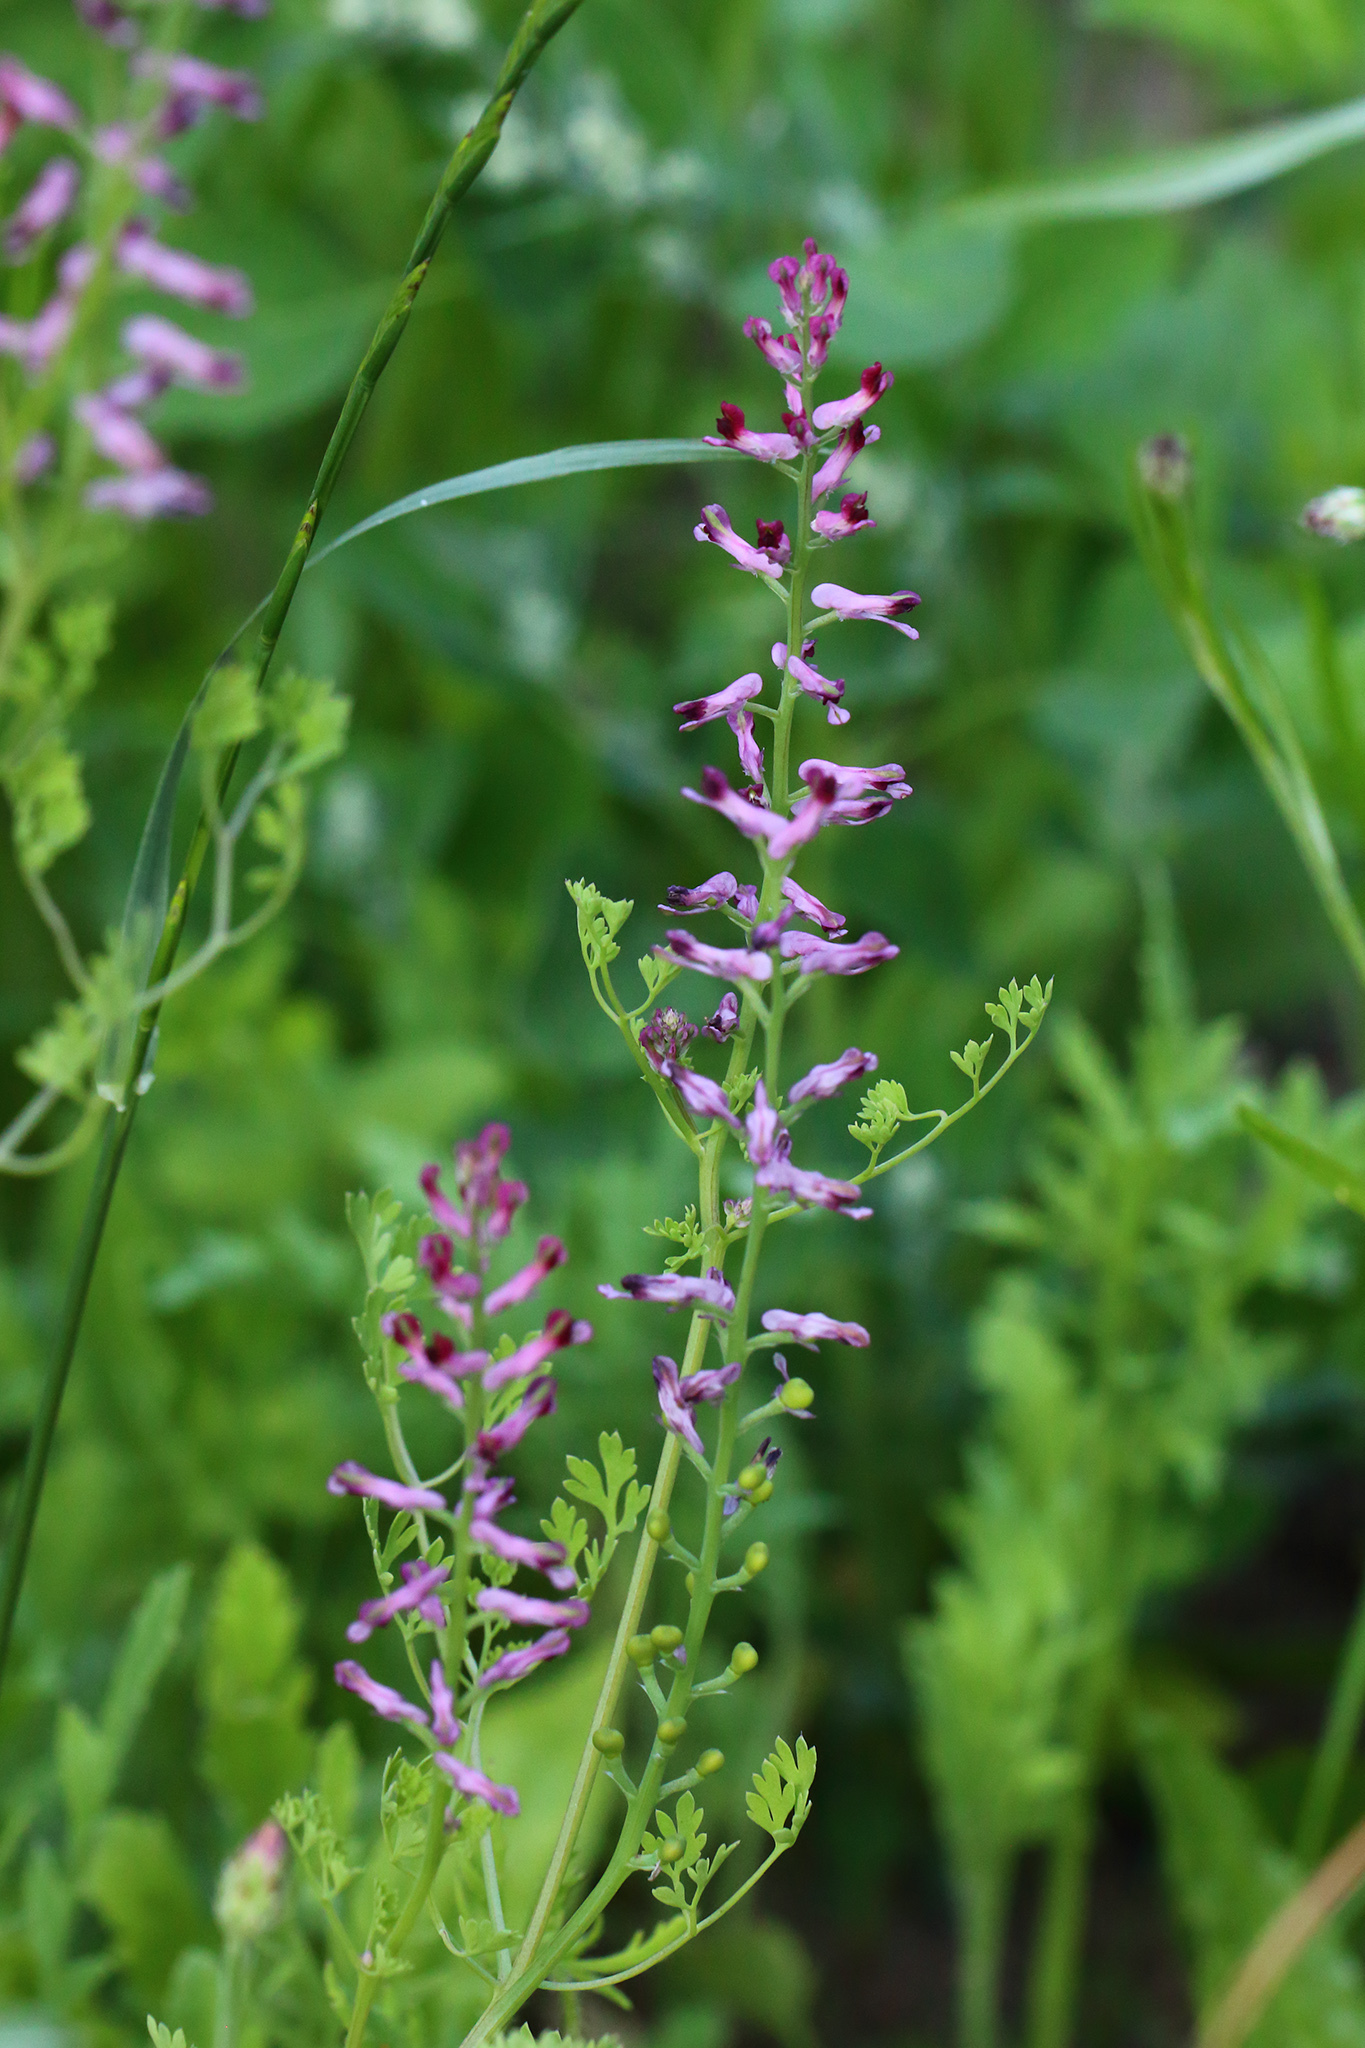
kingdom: Plantae
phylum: Tracheophyta
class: Magnoliopsida
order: Ranunculales
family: Papaveraceae
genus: Fumaria
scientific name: Fumaria officinalis
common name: Common fumitory
